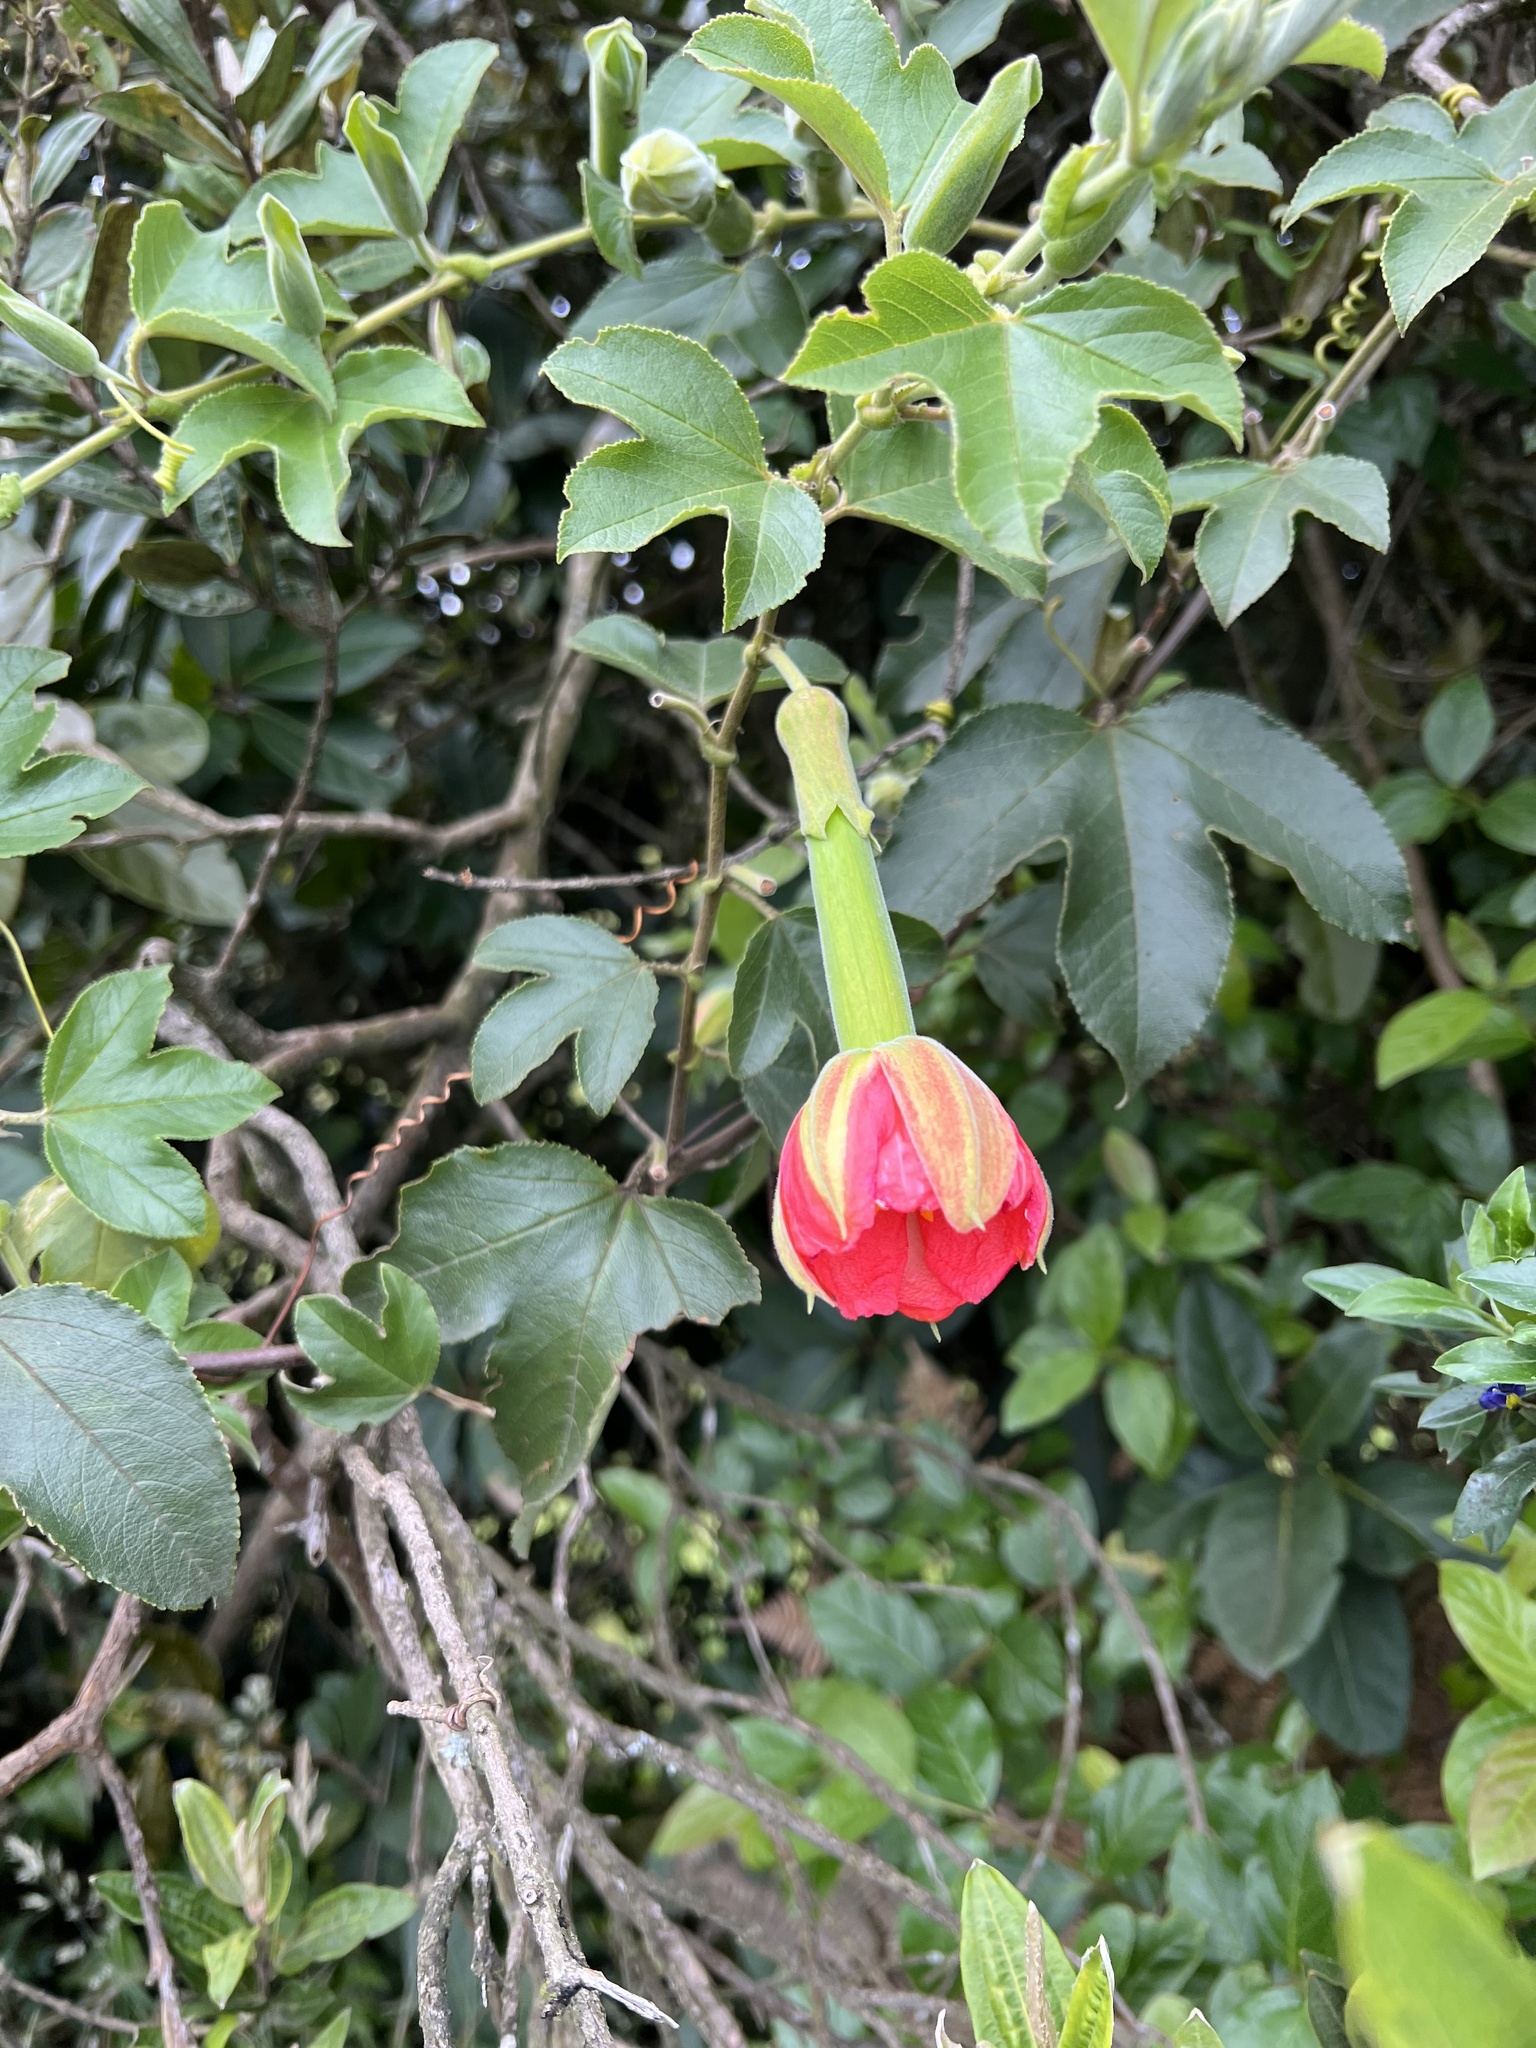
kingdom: Plantae
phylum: Tracheophyta
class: Magnoliopsida
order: Malpighiales
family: Passifloraceae
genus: Passiflora
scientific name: Passiflora mixta
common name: Passion flower
